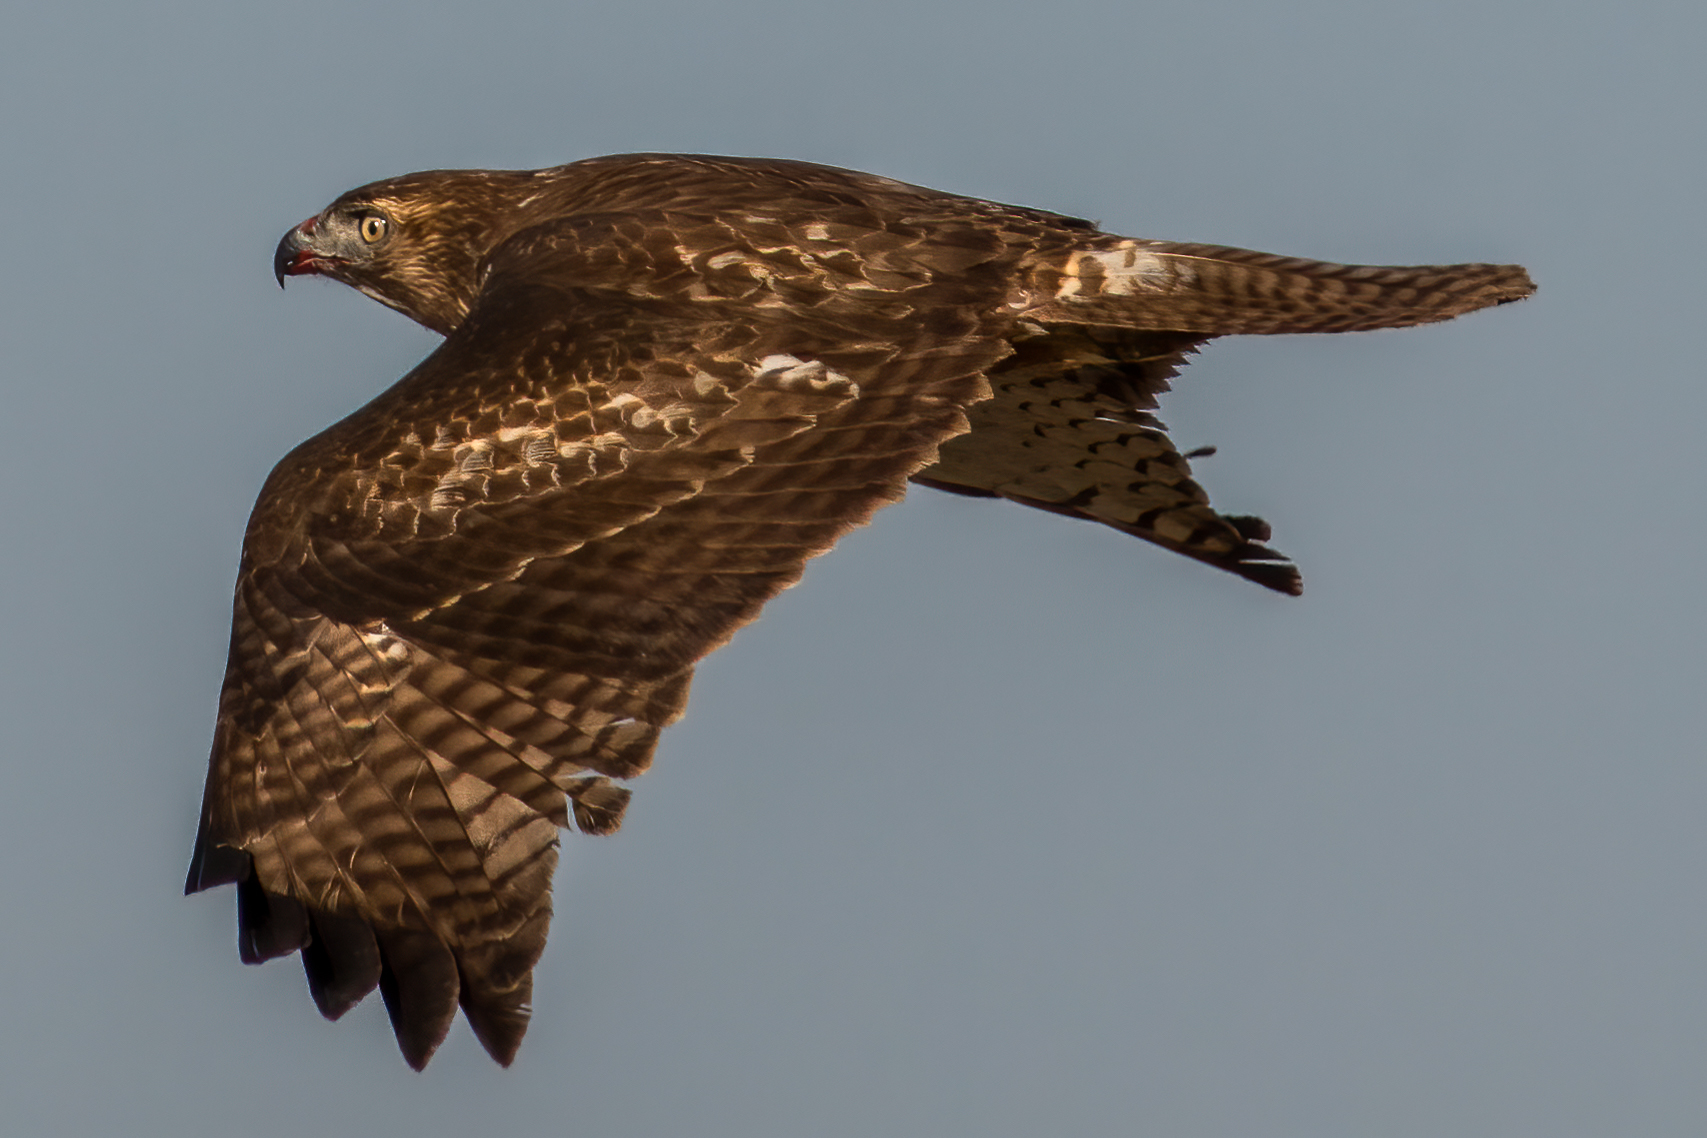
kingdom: Animalia
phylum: Chordata
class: Aves
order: Accipitriformes
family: Accipitridae
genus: Buteo
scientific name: Buteo jamaicensis
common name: Red-tailed hawk
